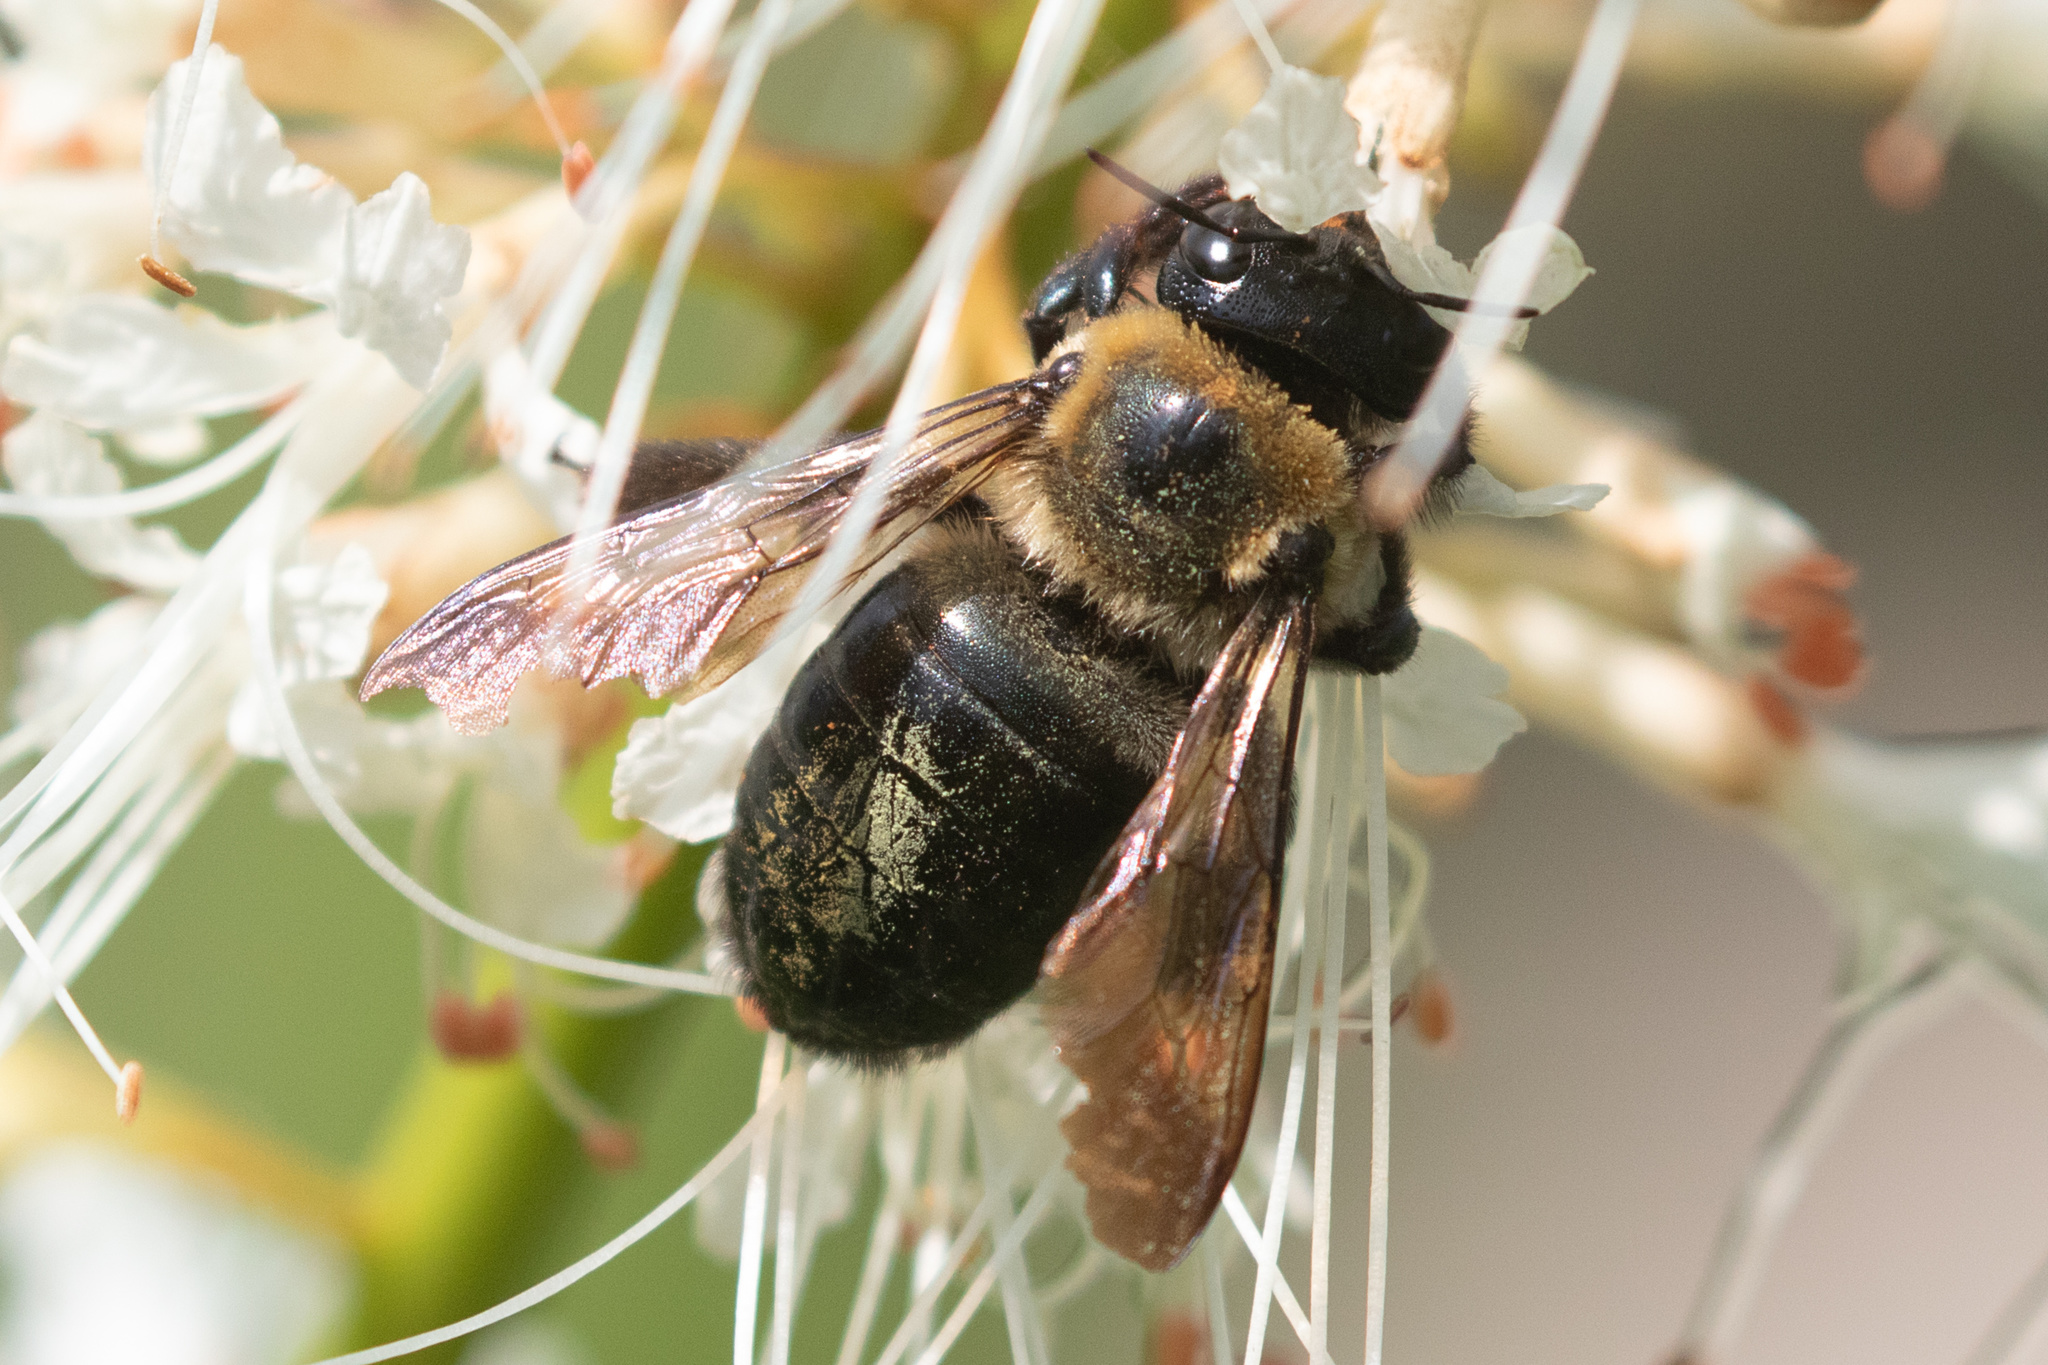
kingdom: Animalia
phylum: Arthropoda
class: Insecta
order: Hymenoptera
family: Apidae
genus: Xylocopa
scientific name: Xylocopa virginica
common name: Carpenter bee
